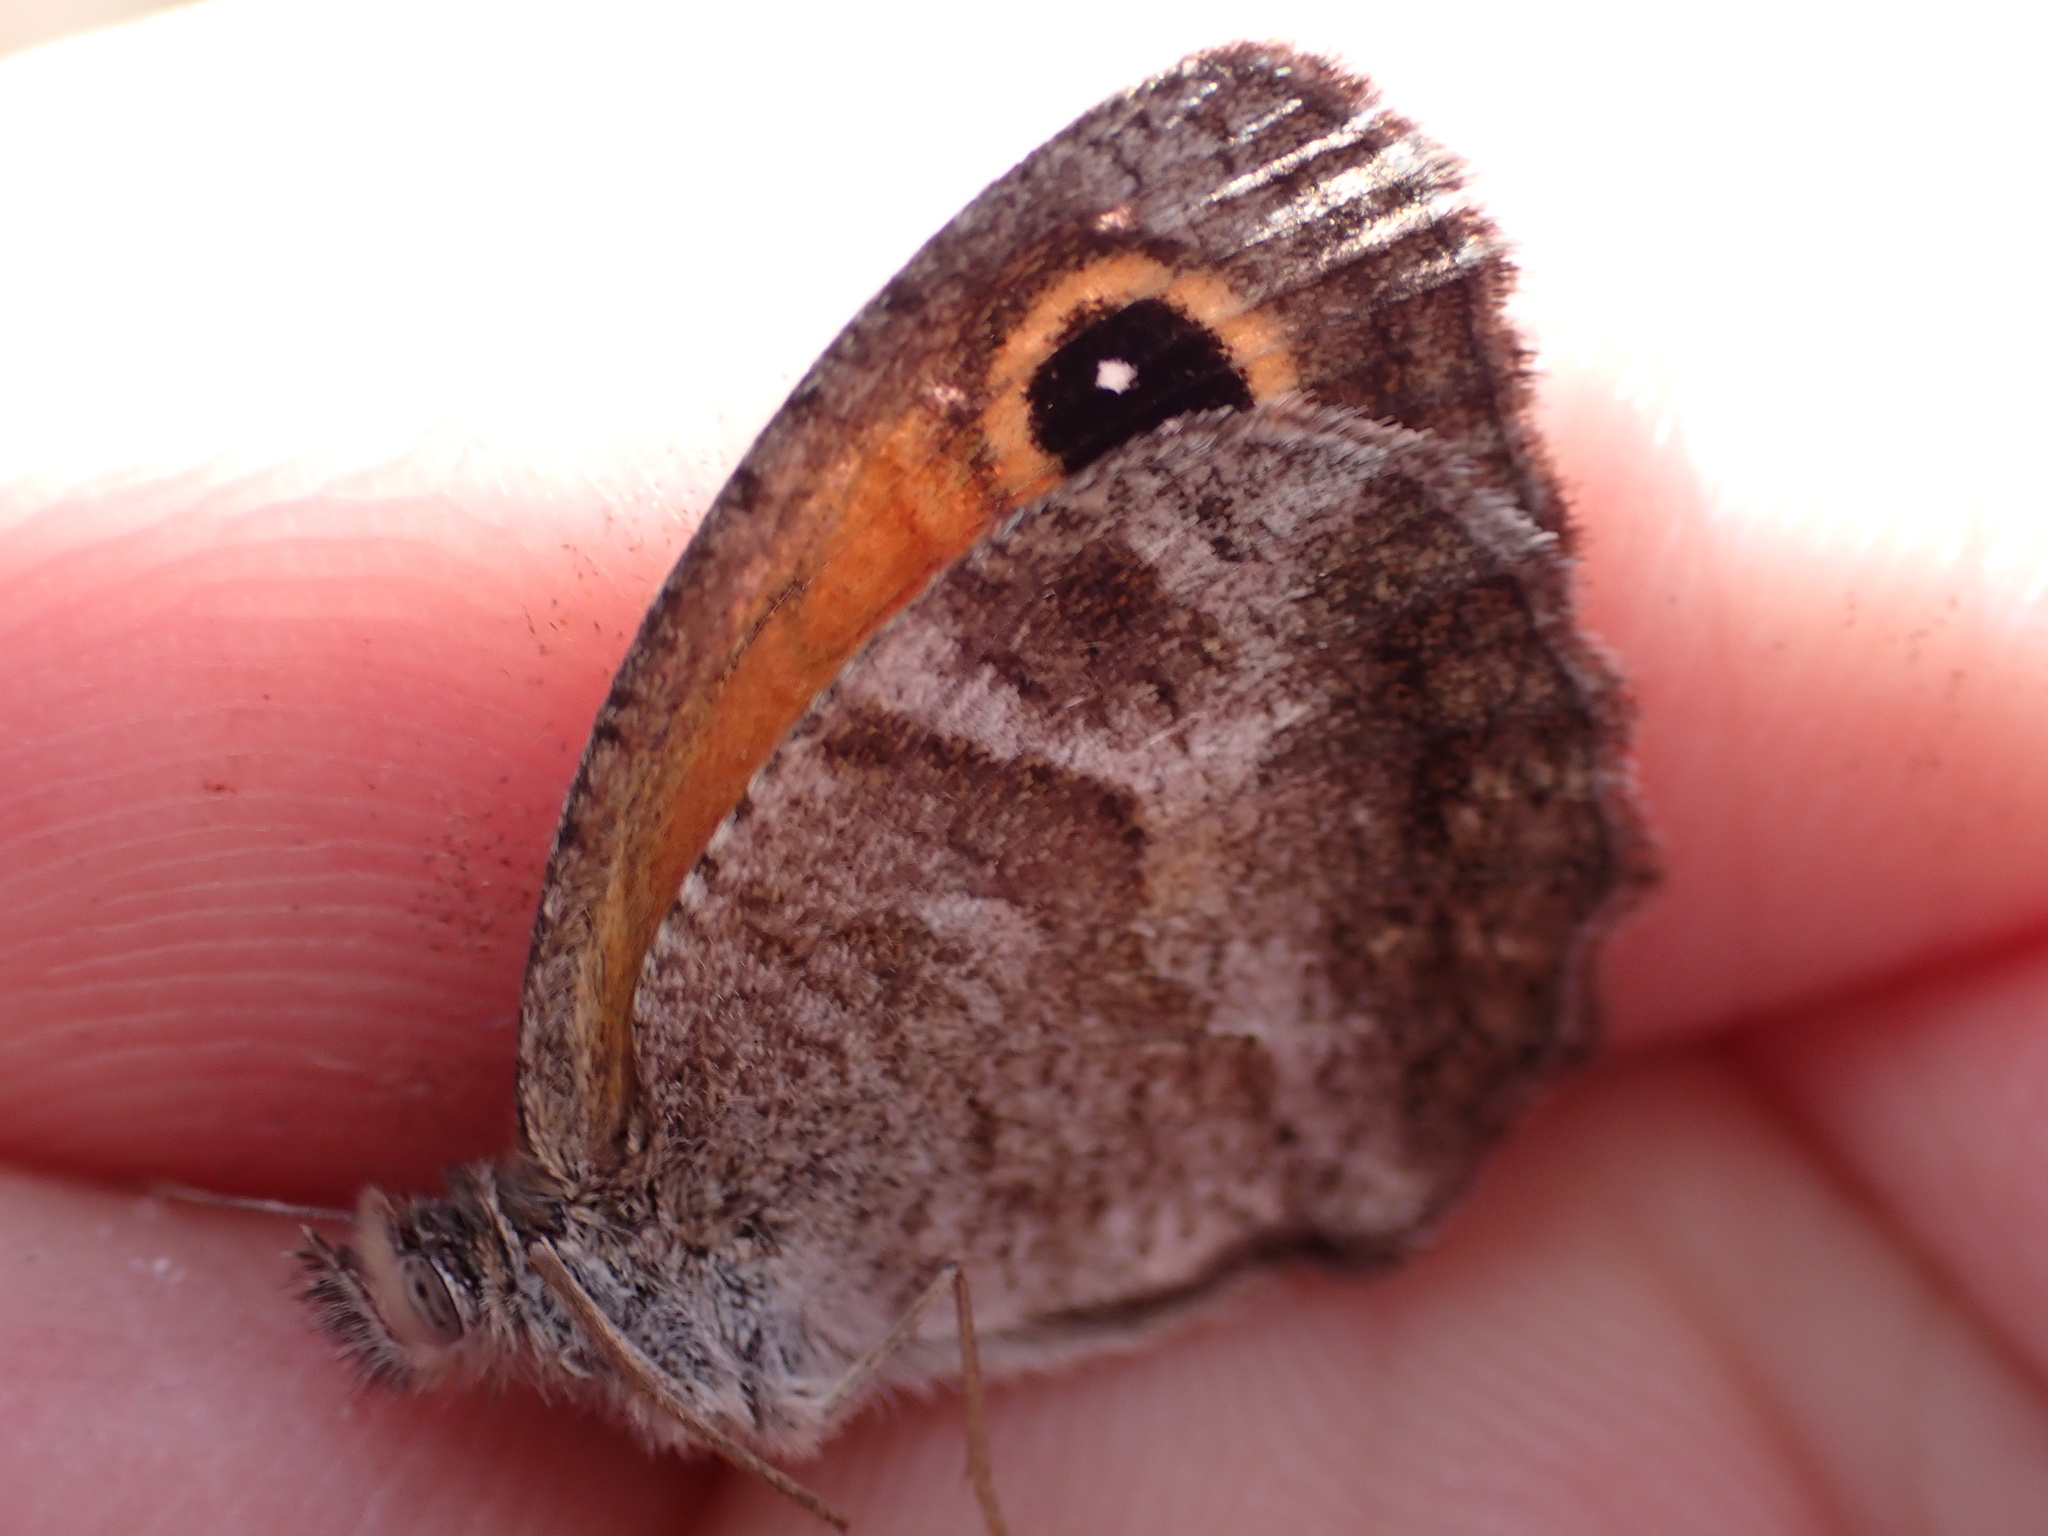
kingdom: Animalia
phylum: Arthropoda
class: Insecta
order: Lepidoptera
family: Nymphalidae
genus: Pyronia
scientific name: Pyronia cecilia
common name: Southern gatekeeper
